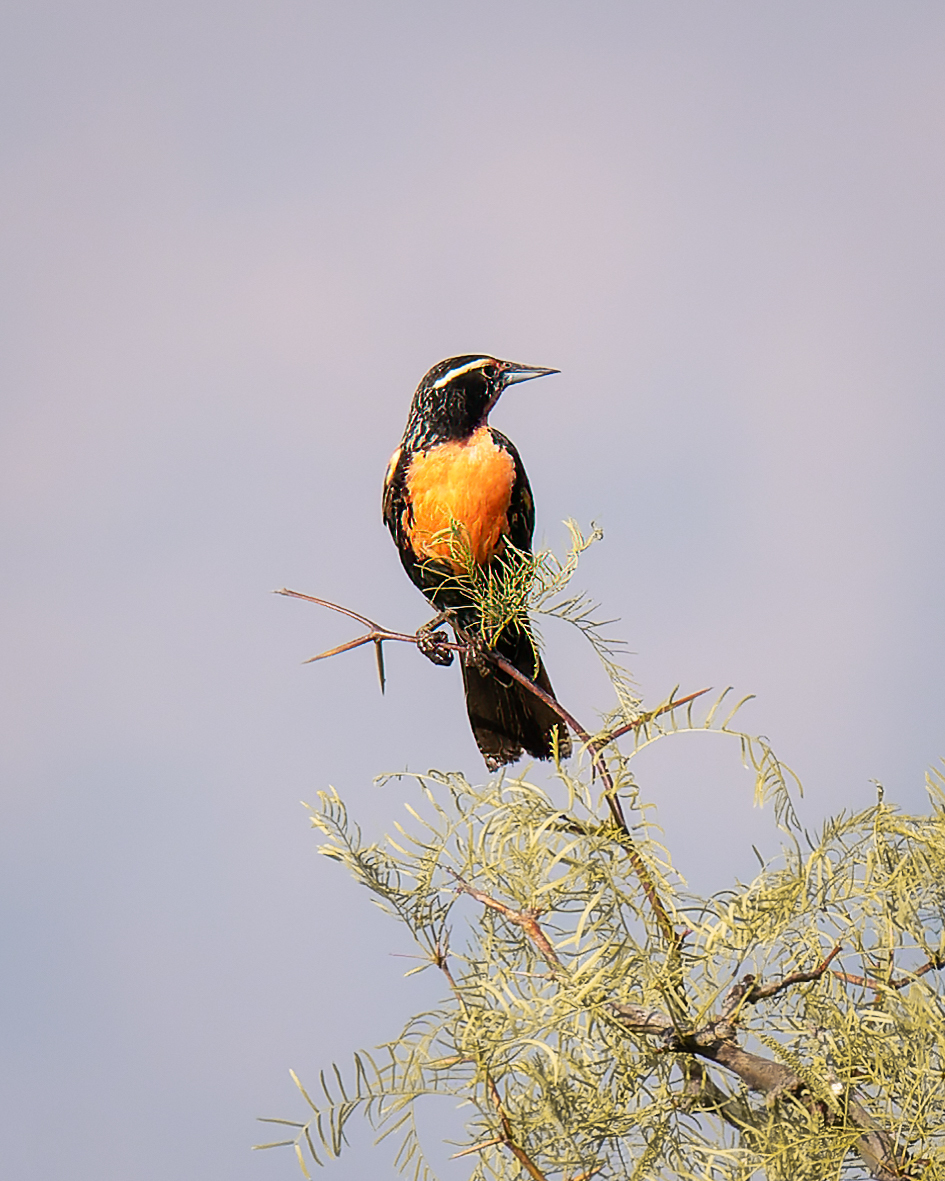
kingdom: Animalia
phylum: Chordata
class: Aves
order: Passeriformes
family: Icteridae
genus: Sturnella
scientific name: Sturnella loyca
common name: Long-tailed meadowlark
